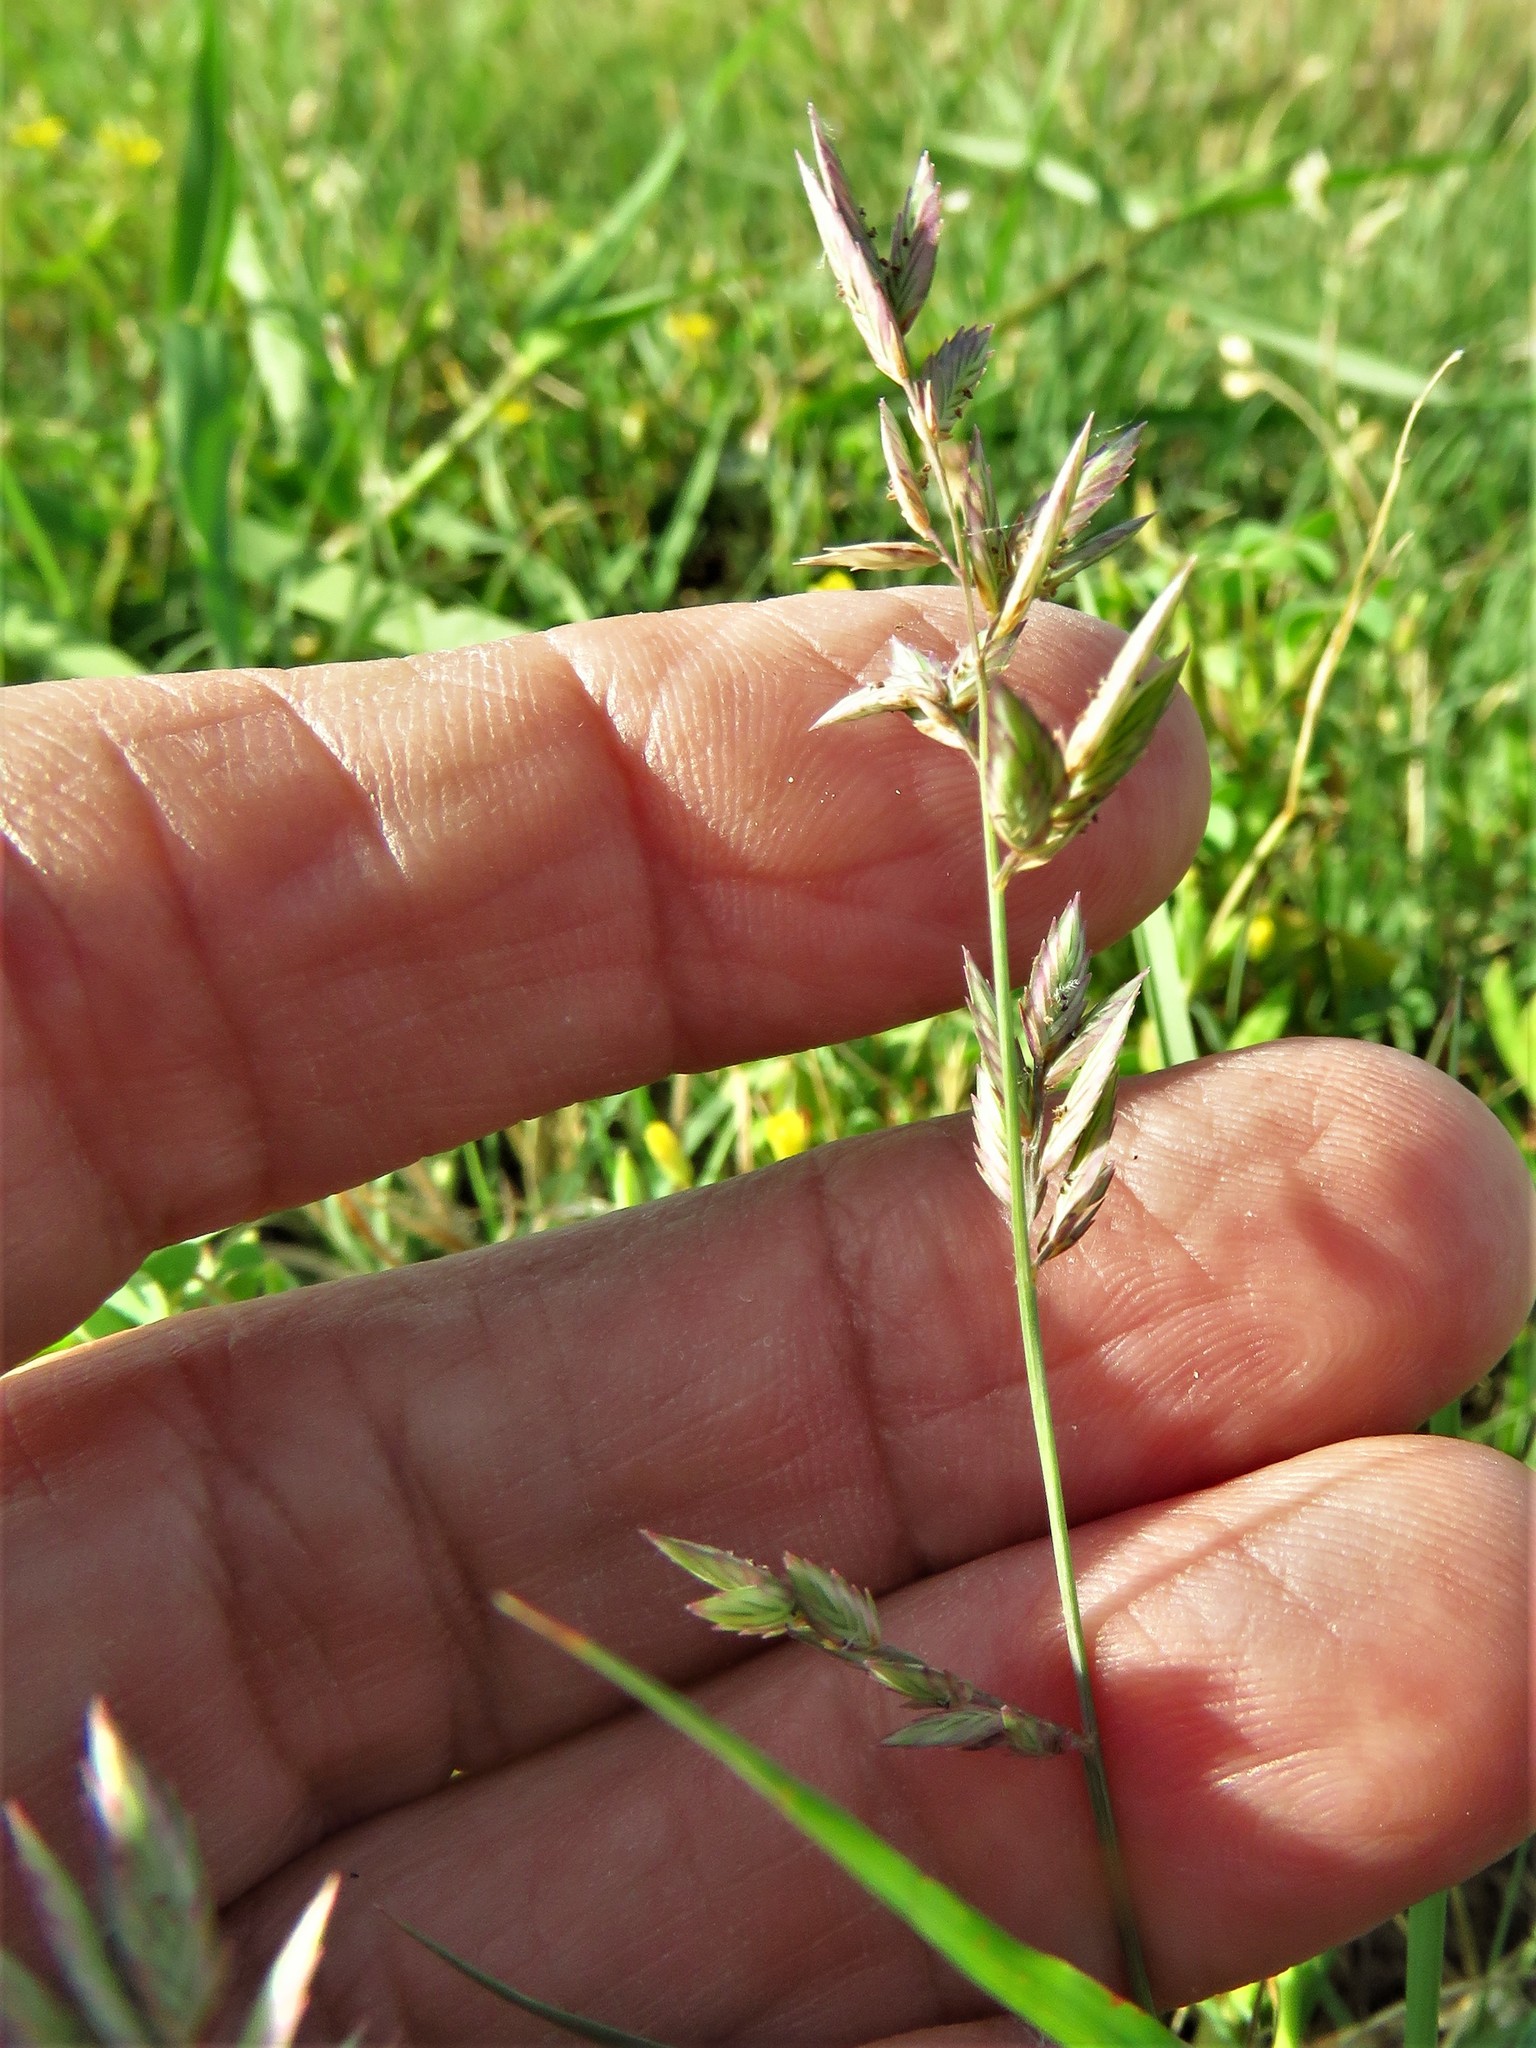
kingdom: Plantae
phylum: Tracheophyta
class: Liliopsida
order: Poales
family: Poaceae
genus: Eragrostis
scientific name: Eragrostis secundiflora
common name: Red love grass
